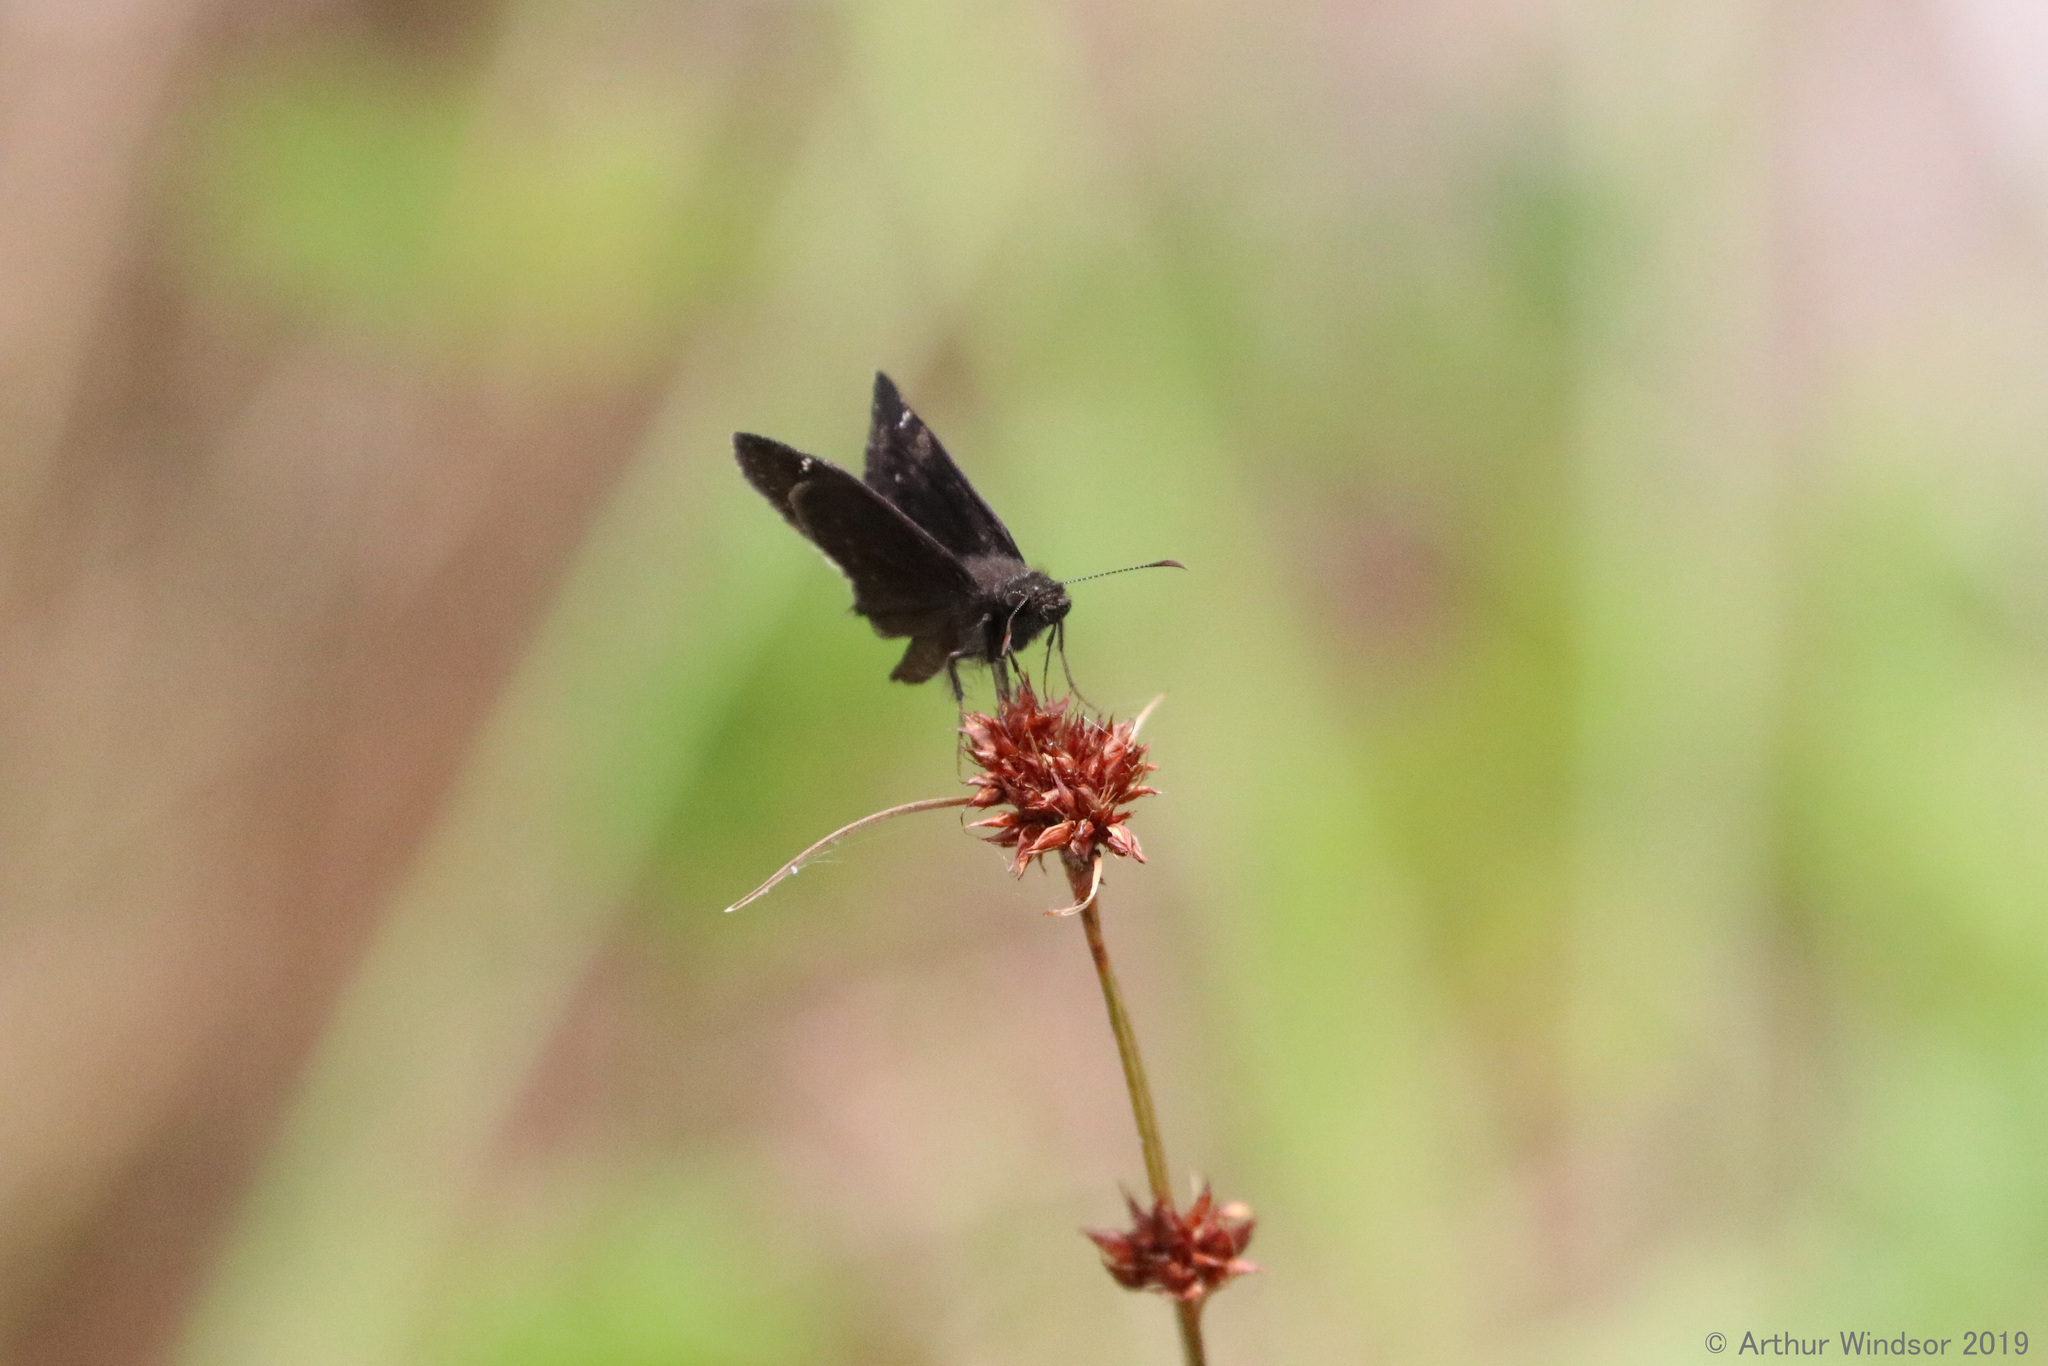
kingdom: Animalia
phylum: Arthropoda
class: Insecta
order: Lepidoptera
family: Hesperiidae
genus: Erynnis
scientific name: Erynnis zarucco
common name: Zarucco duskywing
